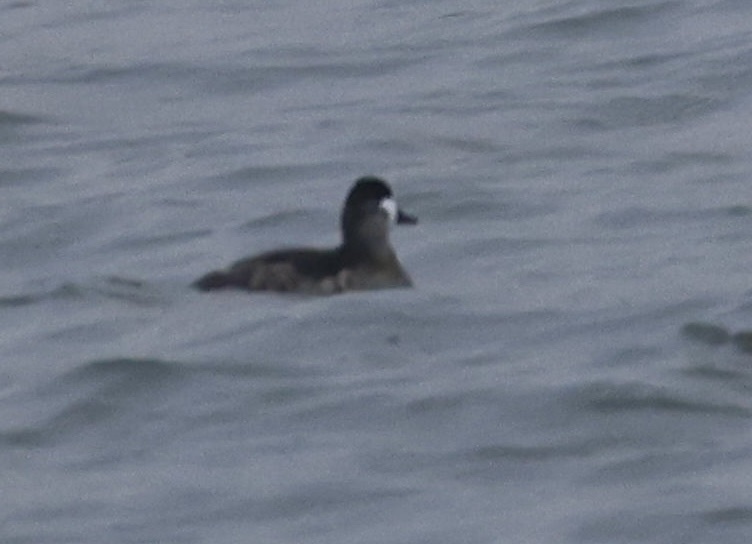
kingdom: Animalia
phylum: Chordata
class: Aves
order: Anseriformes
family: Anatidae
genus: Oxyura
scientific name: Oxyura jamaicensis
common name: Ruddy duck
